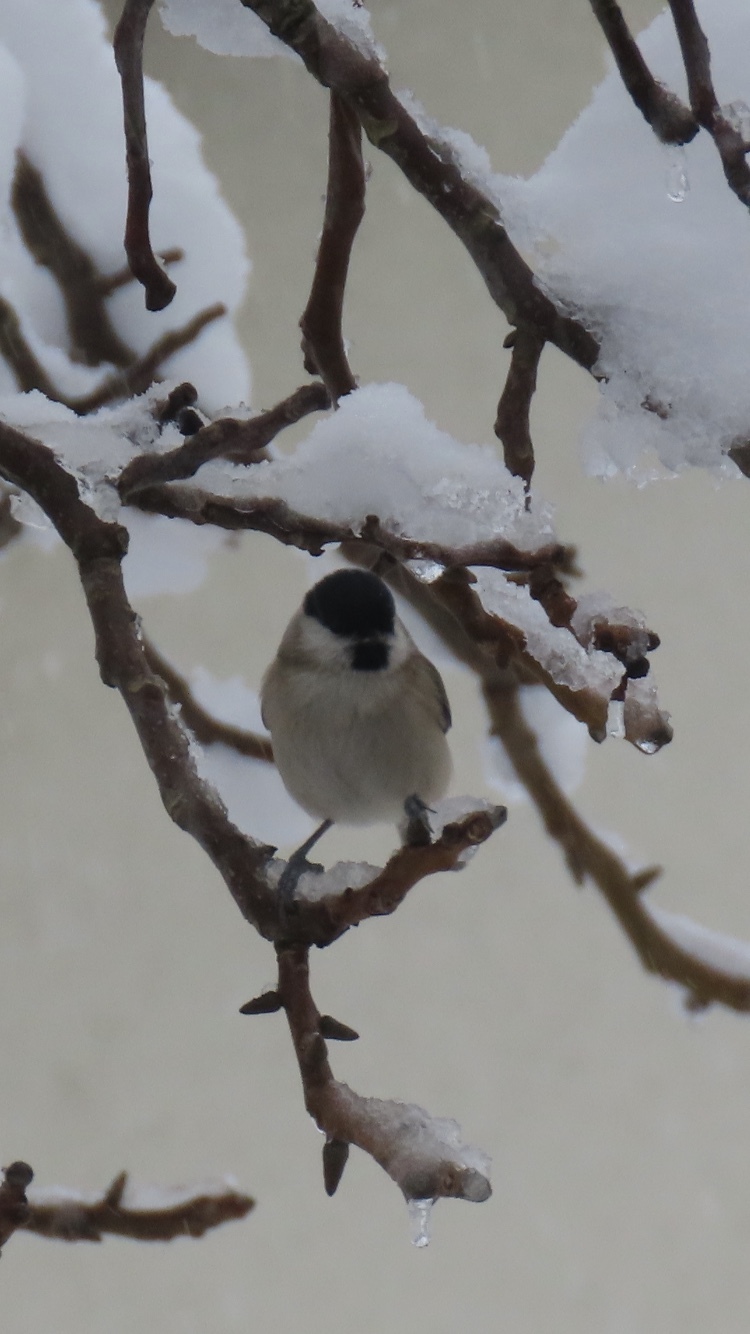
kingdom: Animalia
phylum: Chordata
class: Aves
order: Passeriformes
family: Paridae
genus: Poecile
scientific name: Poecile palustris
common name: Marsh tit
